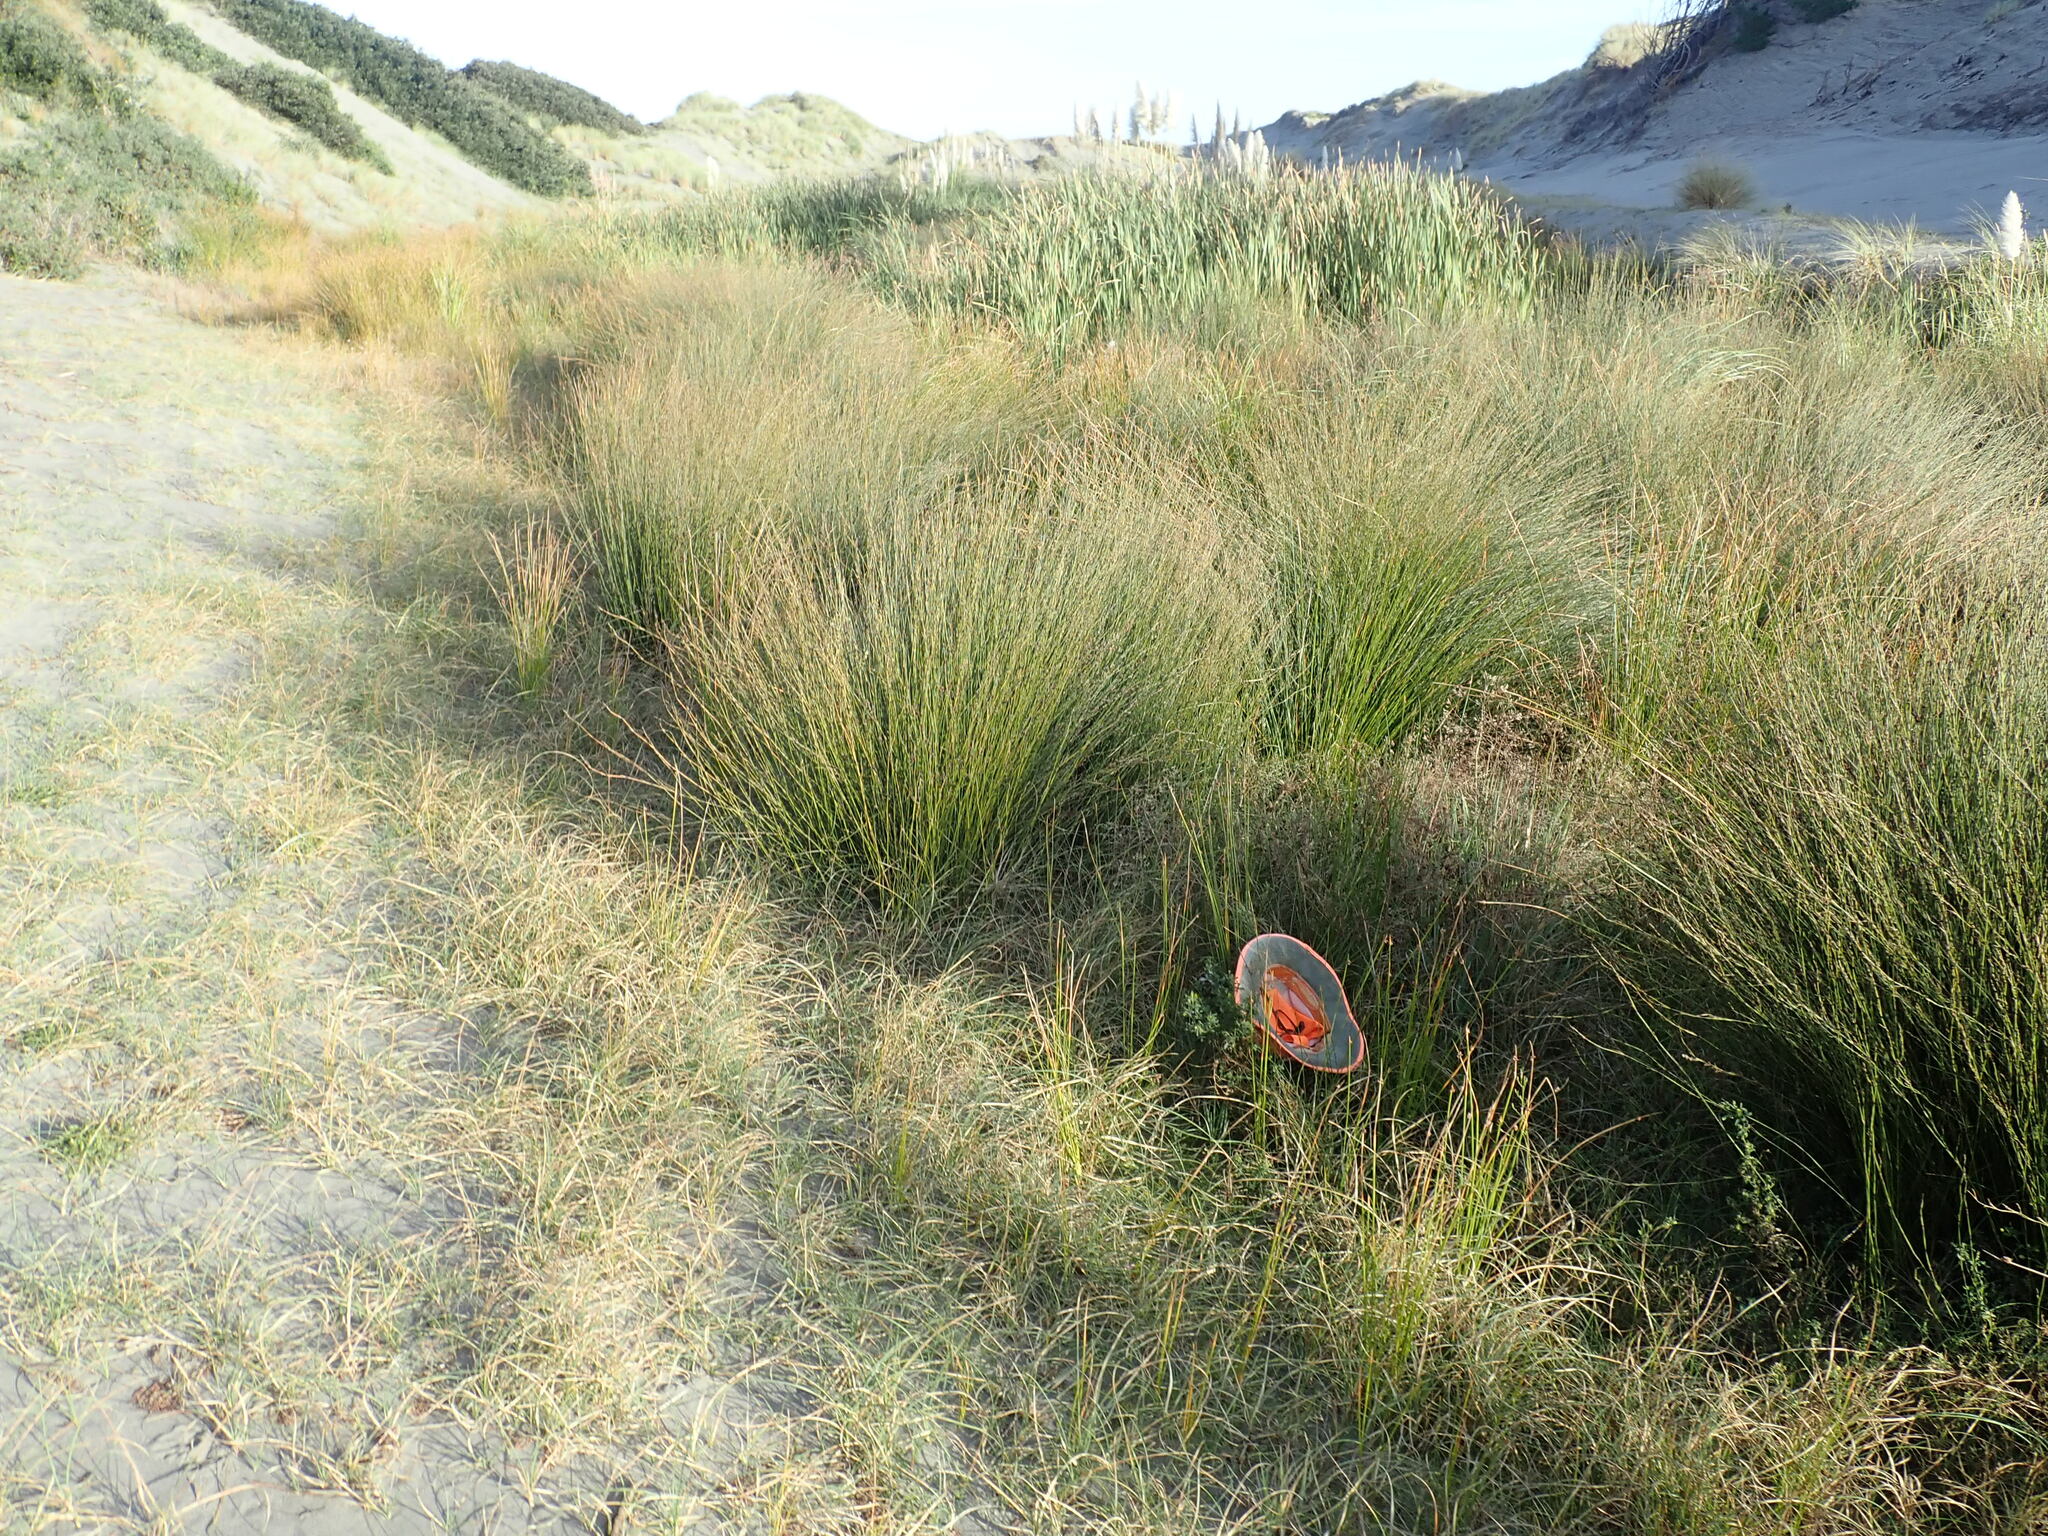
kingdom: Plantae
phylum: Tracheophyta
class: Magnoliopsida
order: Fabales
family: Fabaceae
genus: Melilotus
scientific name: Melilotus indicus
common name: Small melilot
